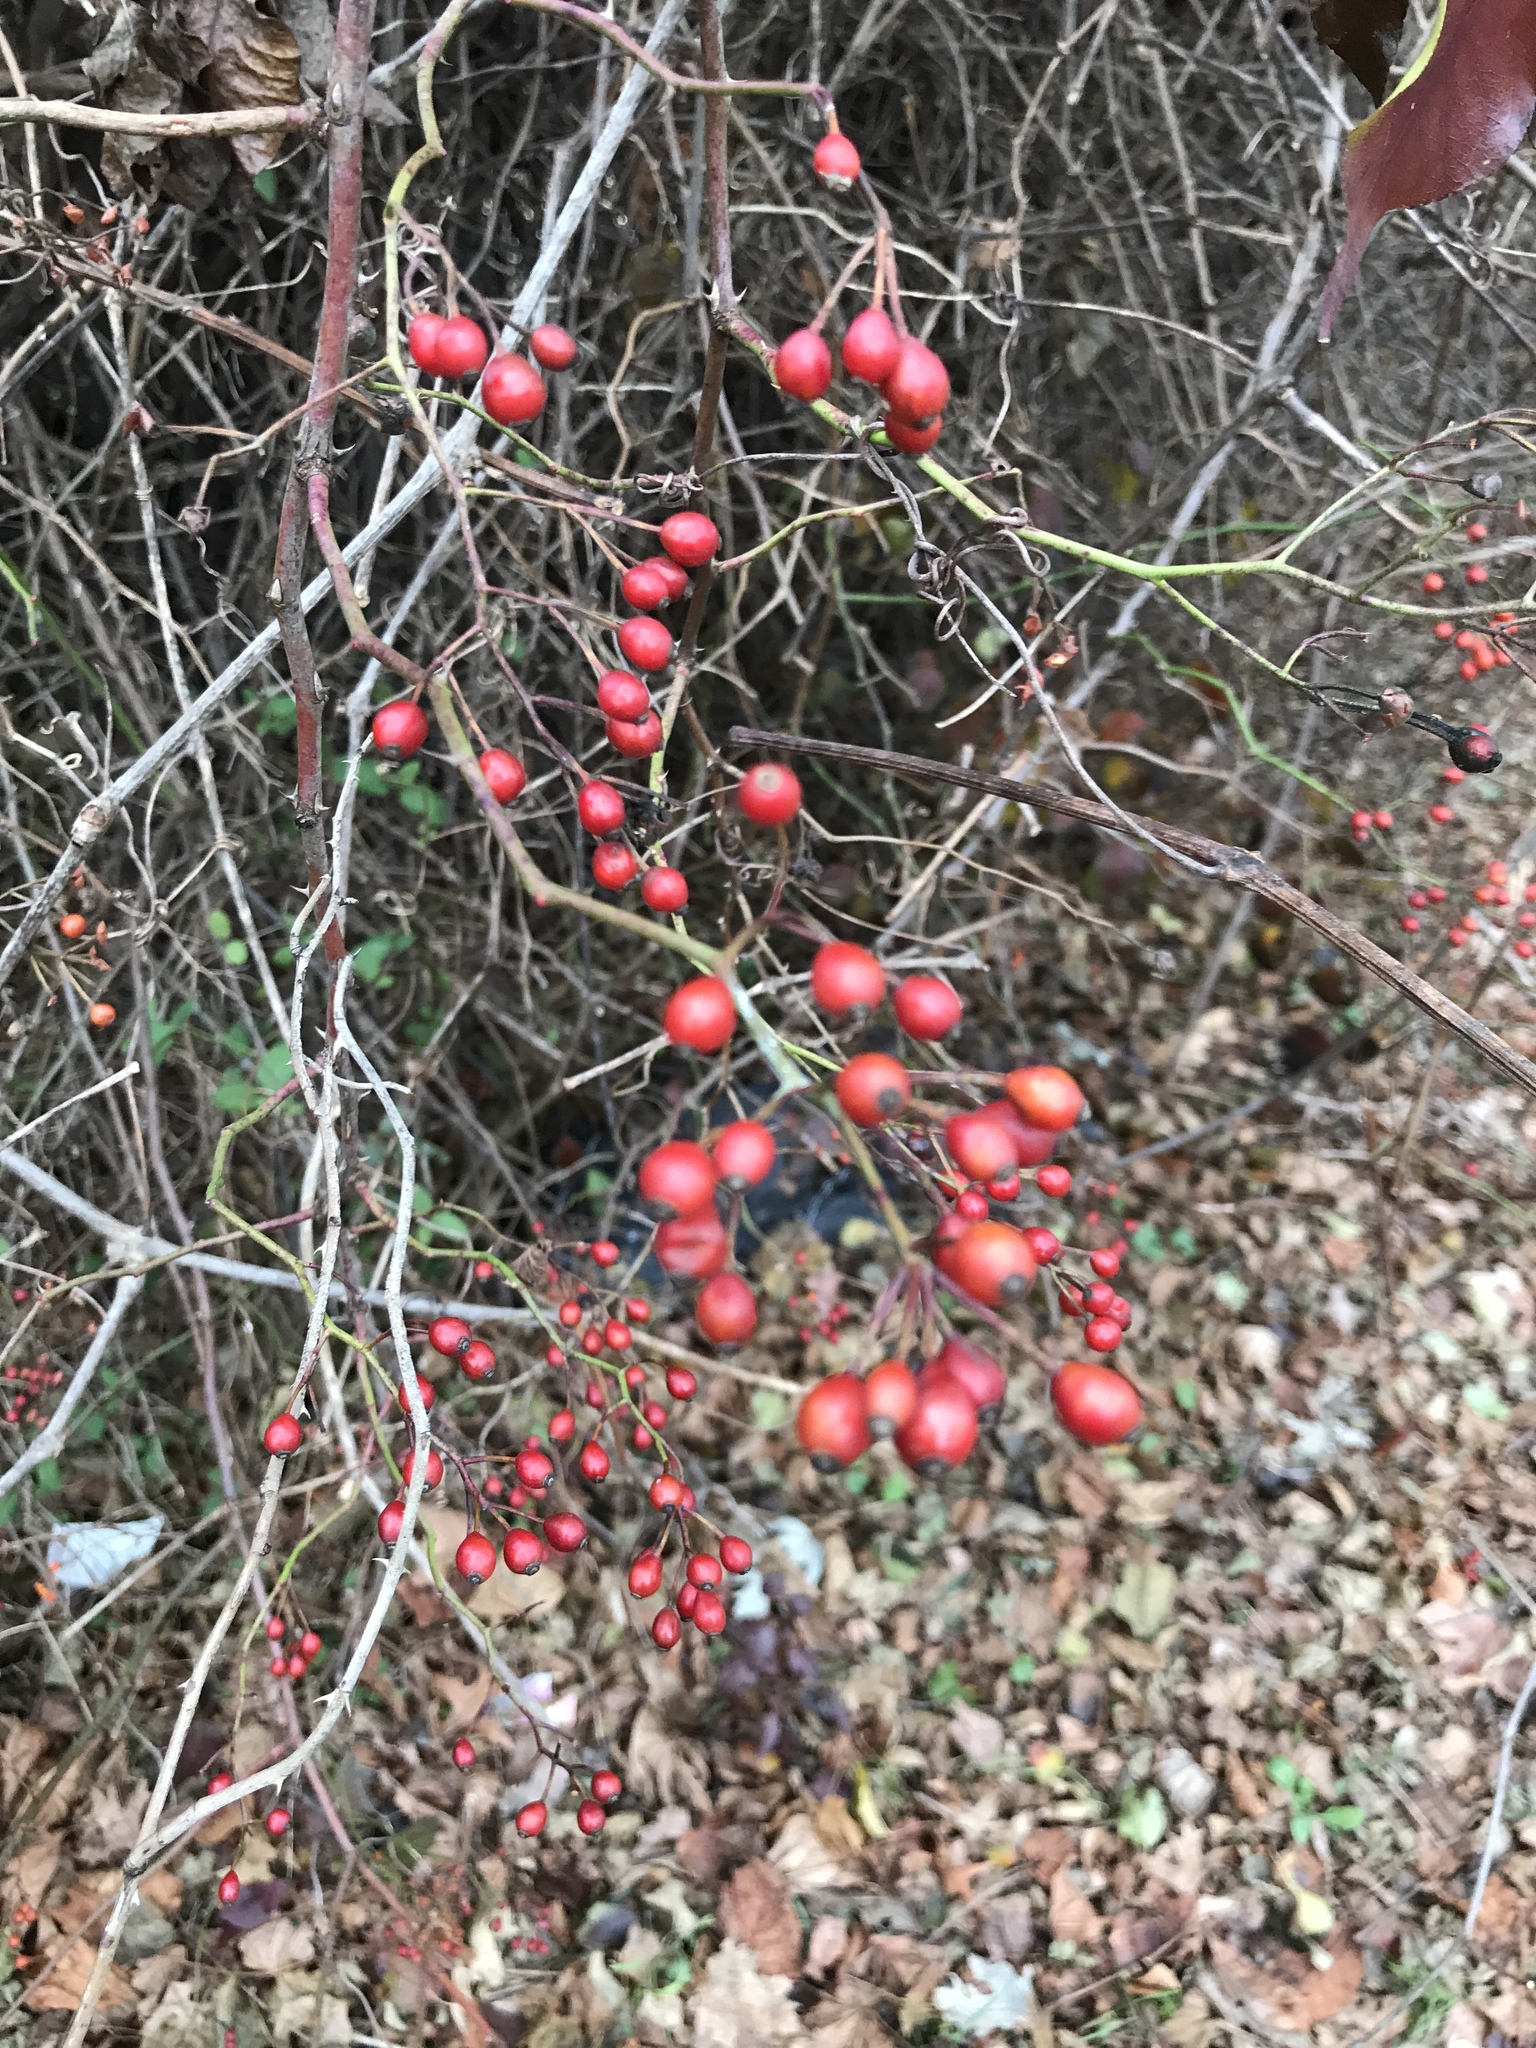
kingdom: Plantae
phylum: Tracheophyta
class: Magnoliopsida
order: Rosales
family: Rosaceae
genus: Rosa
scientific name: Rosa multiflora
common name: Multiflora rose
